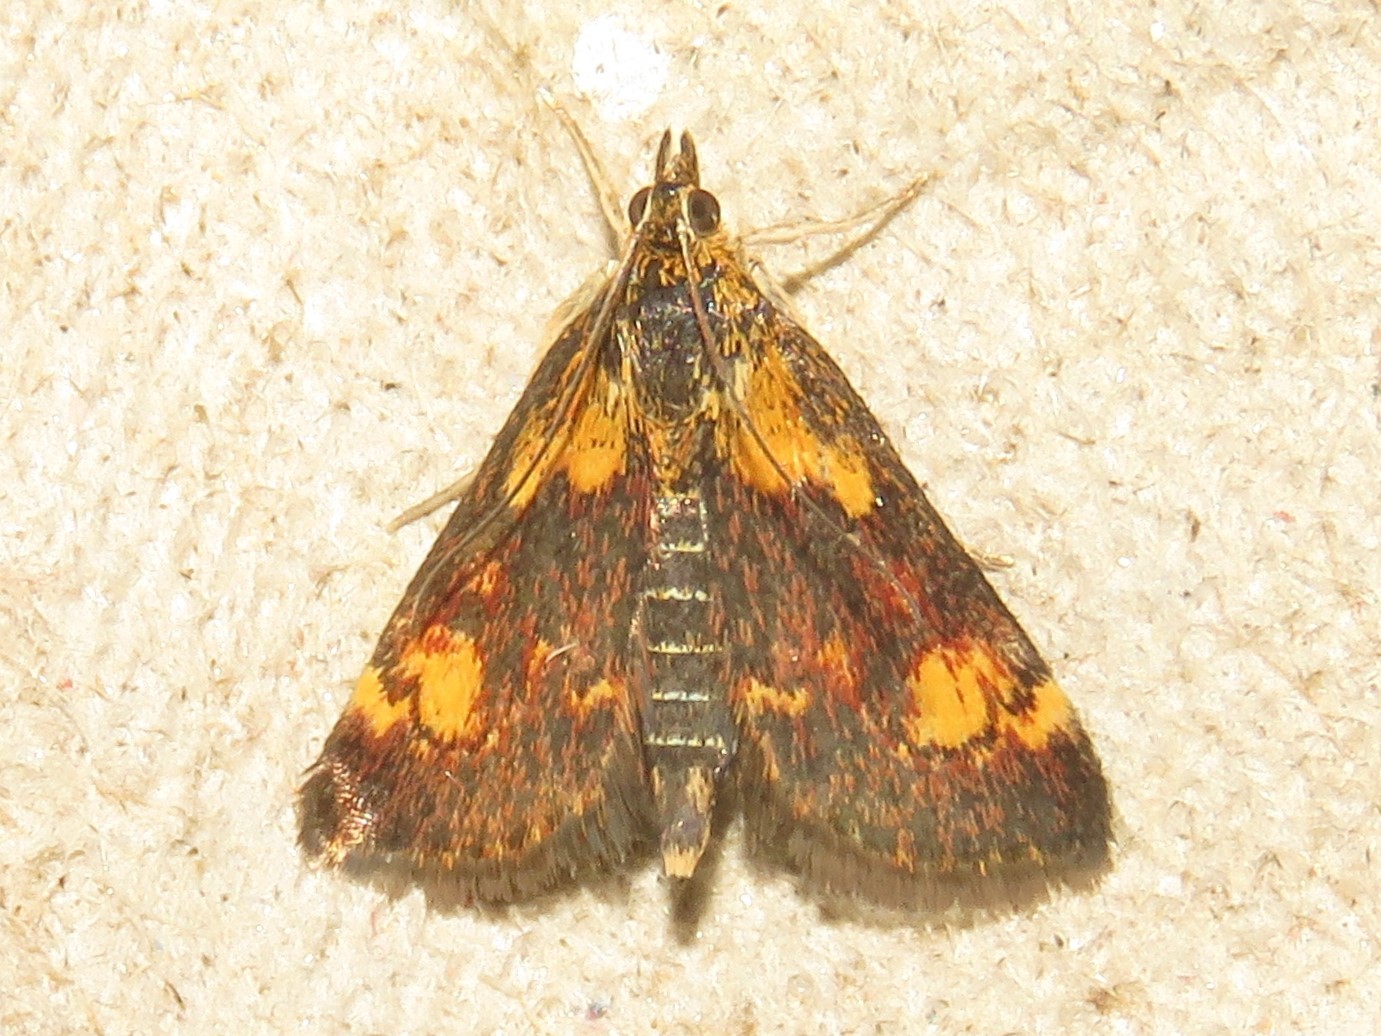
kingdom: Animalia
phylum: Arthropoda
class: Insecta
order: Lepidoptera
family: Crambidae
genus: Pyrausta
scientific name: Pyrausta orphisalis
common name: Orange mint moth
